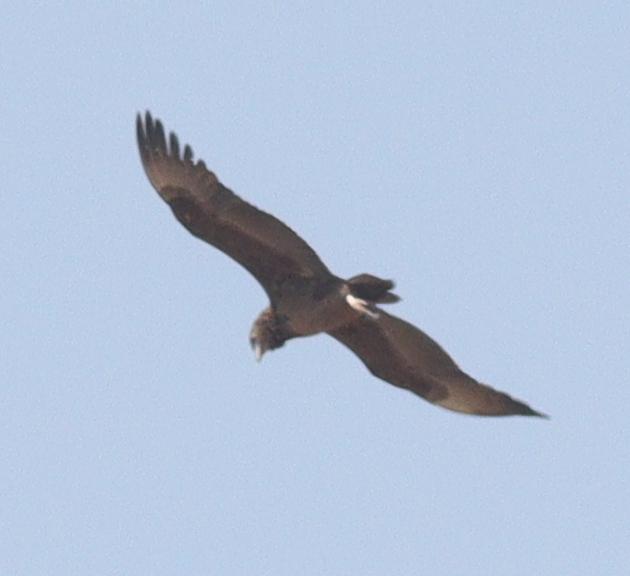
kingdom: Animalia
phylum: Chordata
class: Aves
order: Accipitriformes
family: Accipitridae
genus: Terathopius
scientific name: Terathopius ecaudatus
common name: Bateleur
